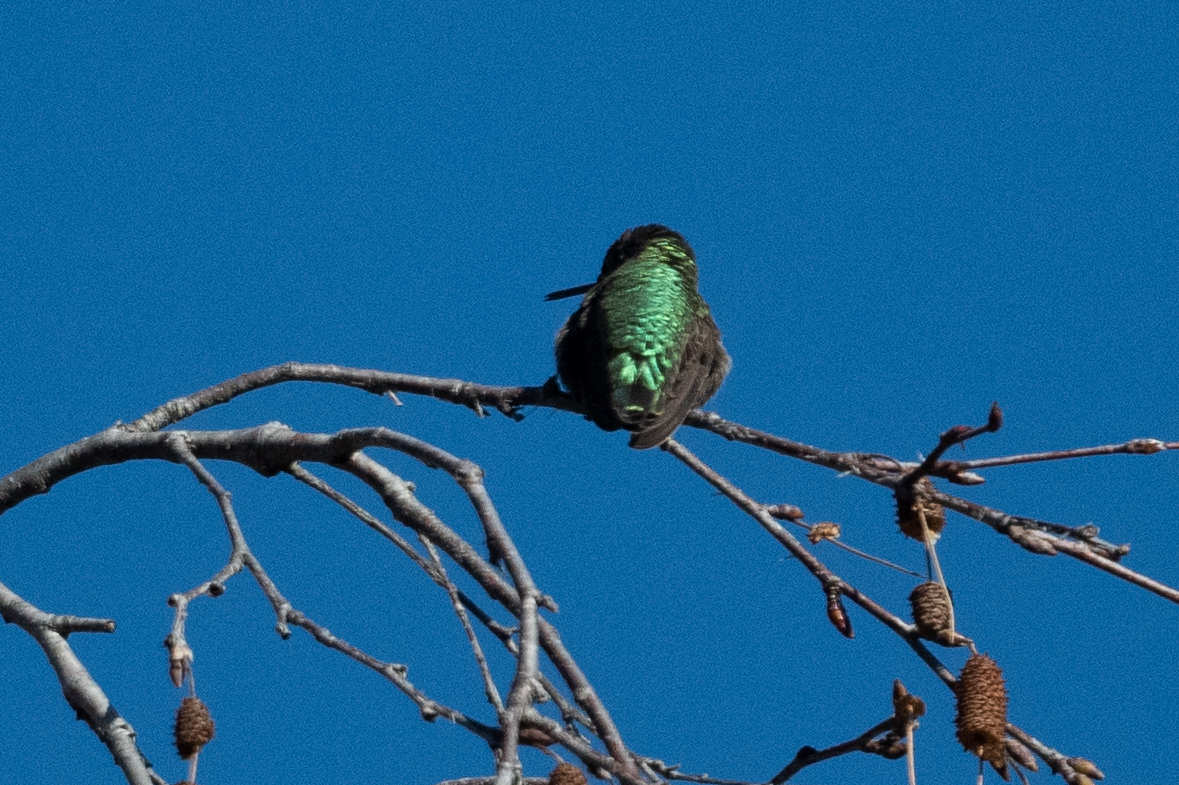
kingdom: Animalia
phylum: Chordata
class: Aves
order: Apodiformes
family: Trochilidae
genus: Calypte
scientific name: Calypte anna
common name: Anna's hummingbird
